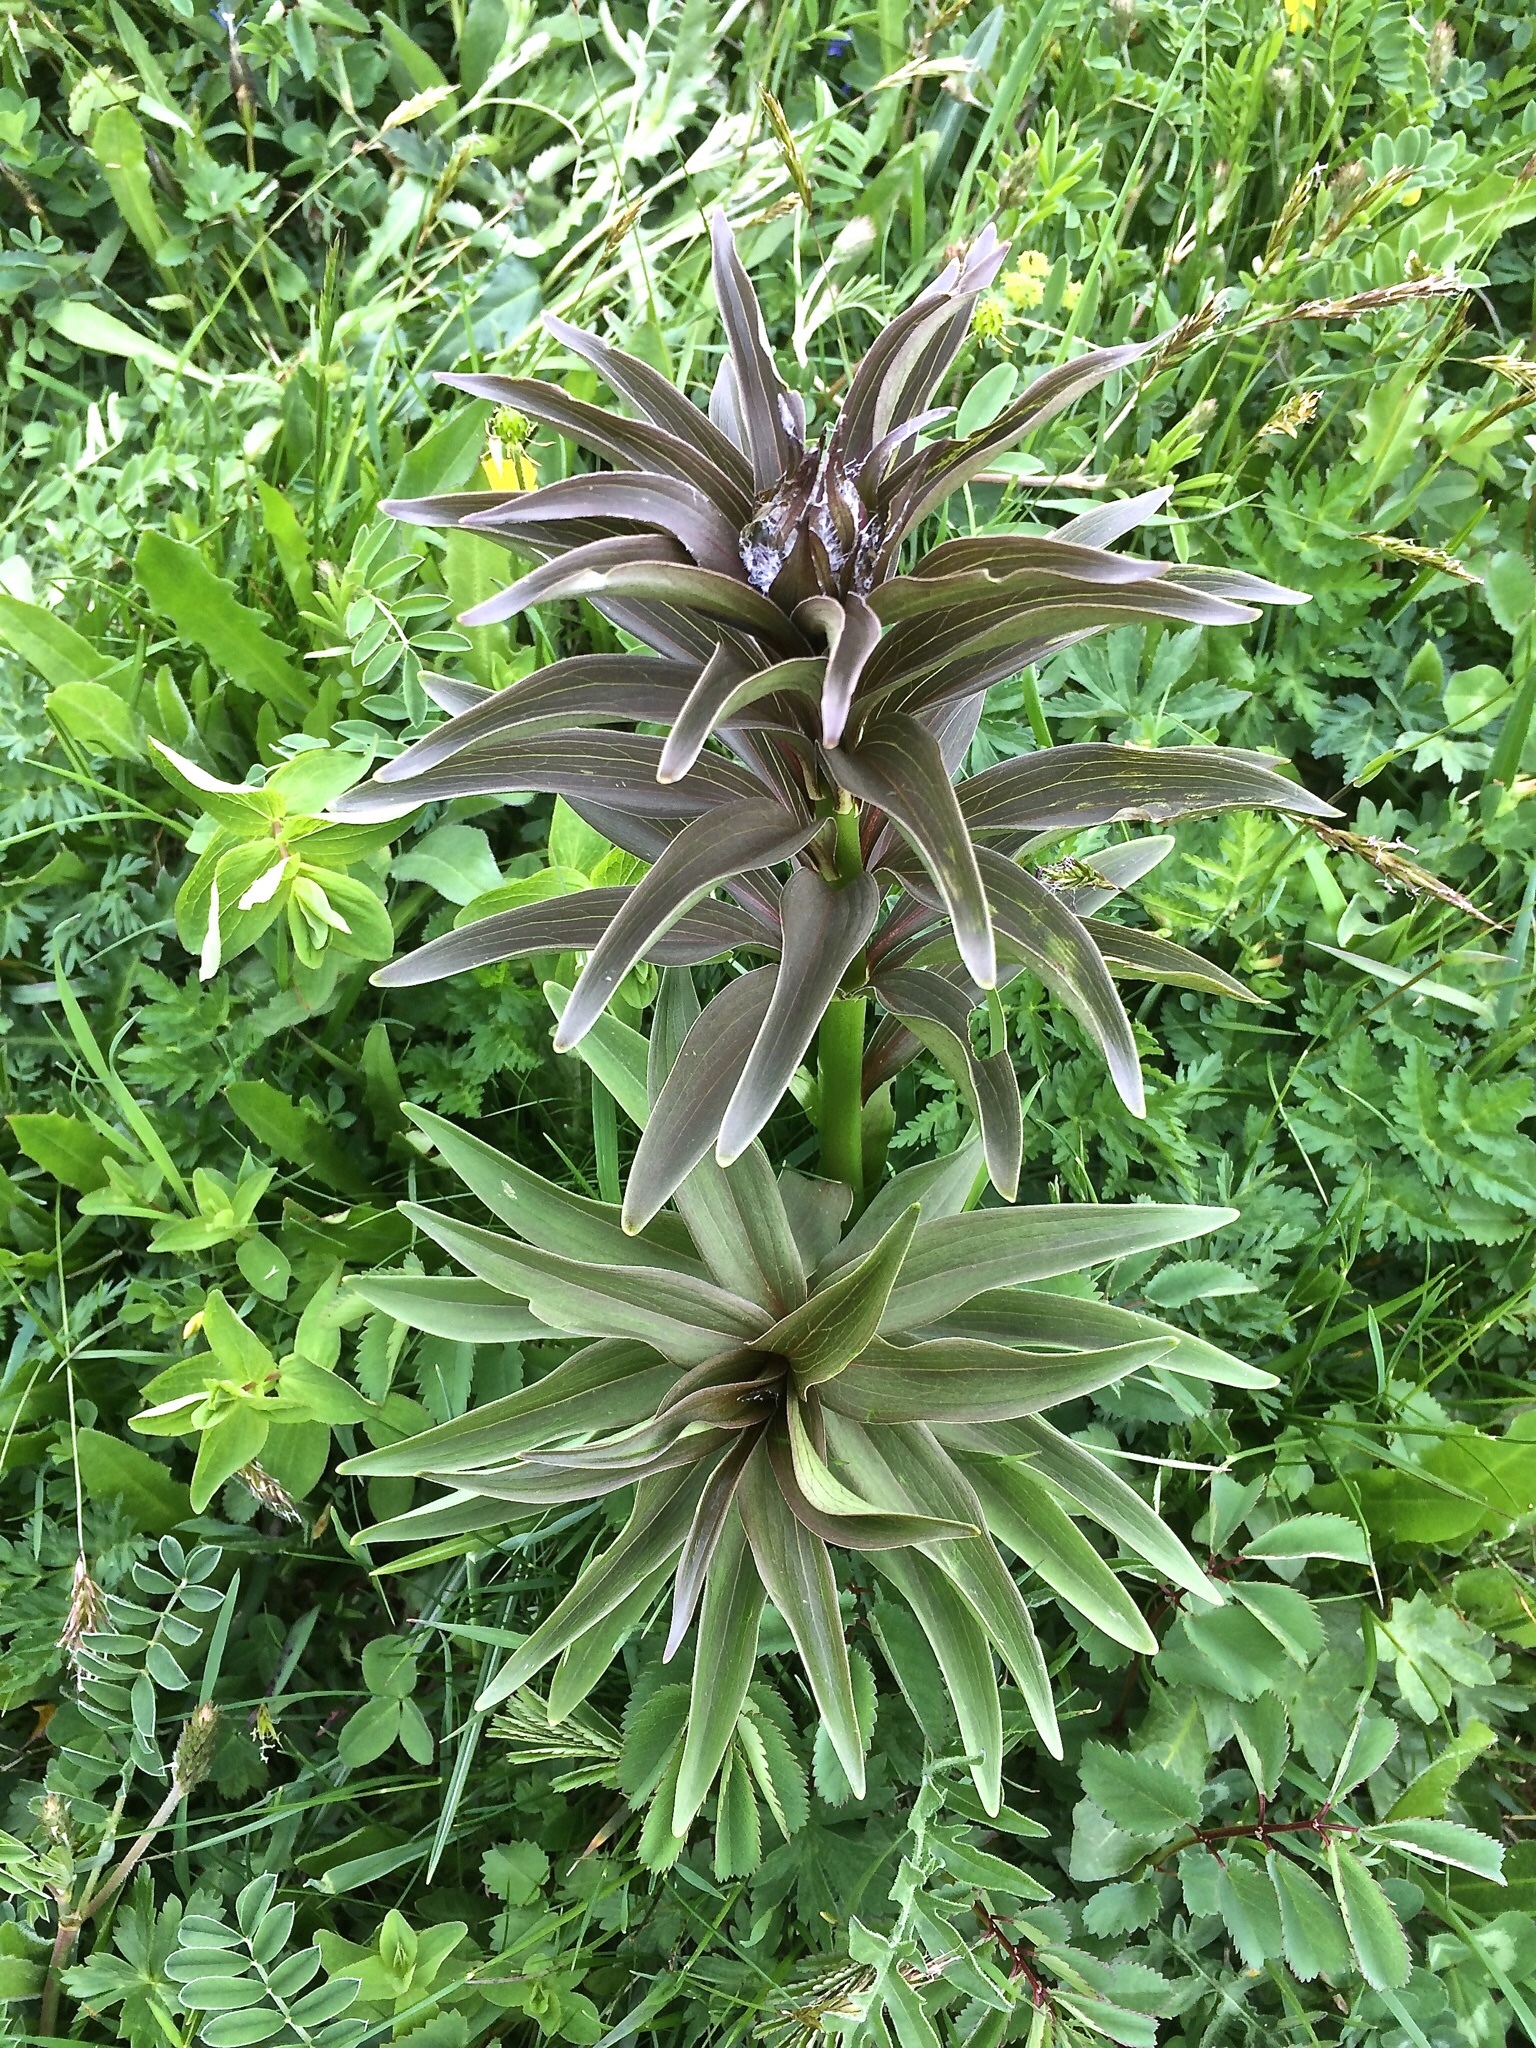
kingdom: Plantae
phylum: Tracheophyta
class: Liliopsida
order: Liliales
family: Liliaceae
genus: Lilium
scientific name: Lilium martagon
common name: Martagon lily
